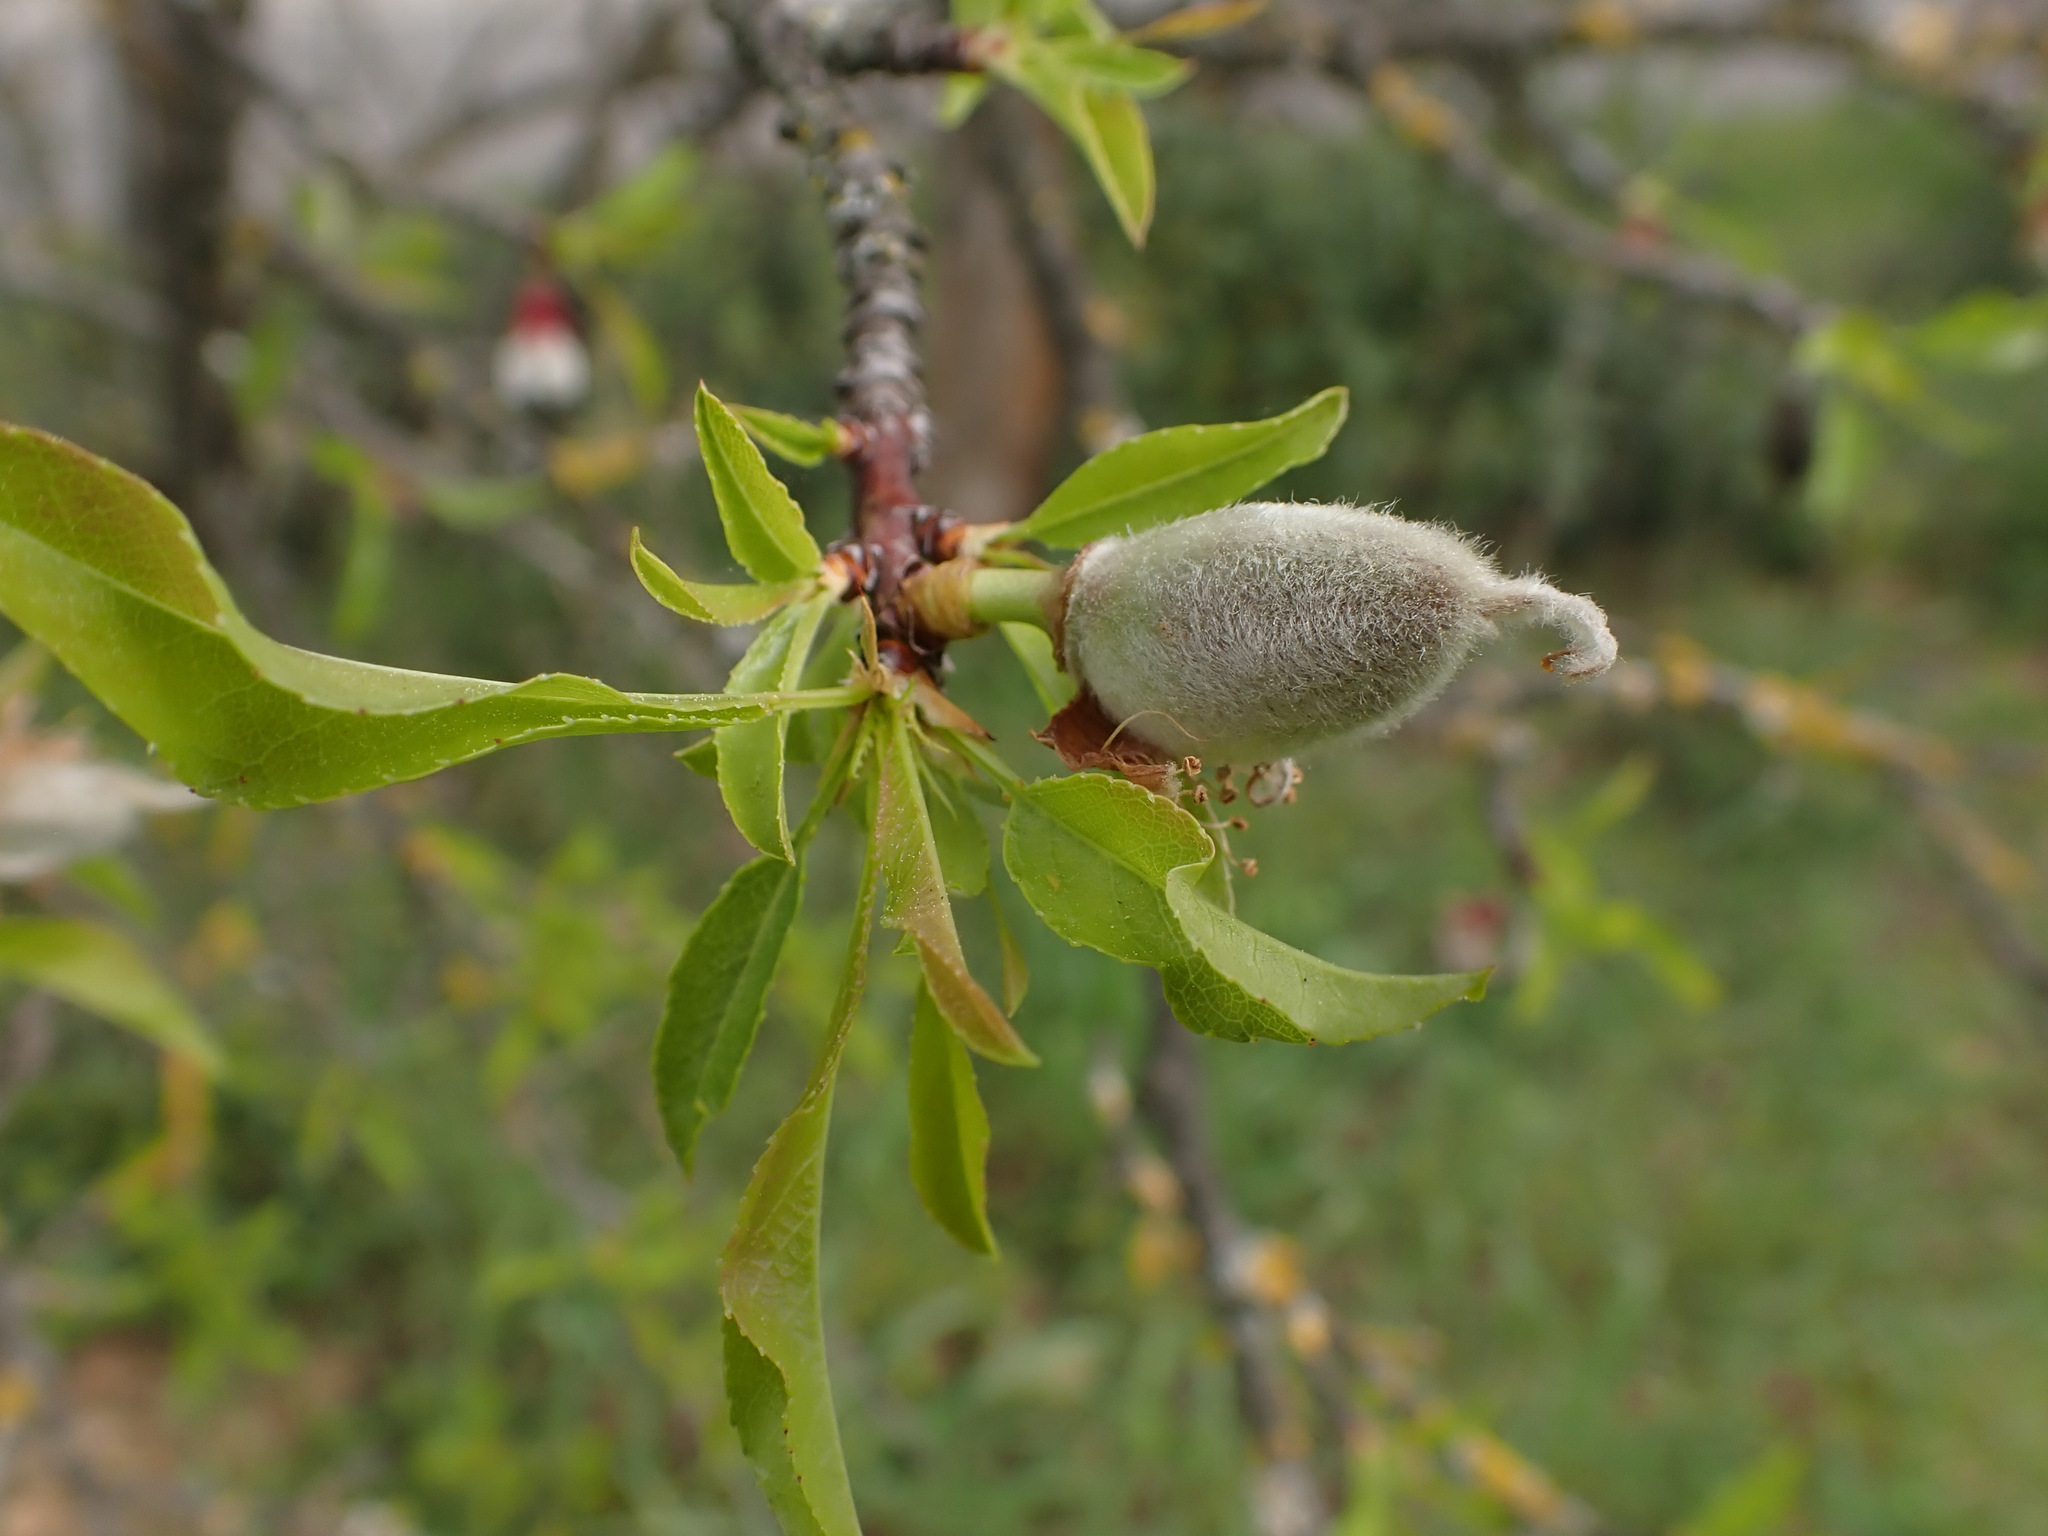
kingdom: Plantae
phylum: Tracheophyta
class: Magnoliopsida
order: Rosales
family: Rosaceae
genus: Prunus
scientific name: Prunus amygdalus
